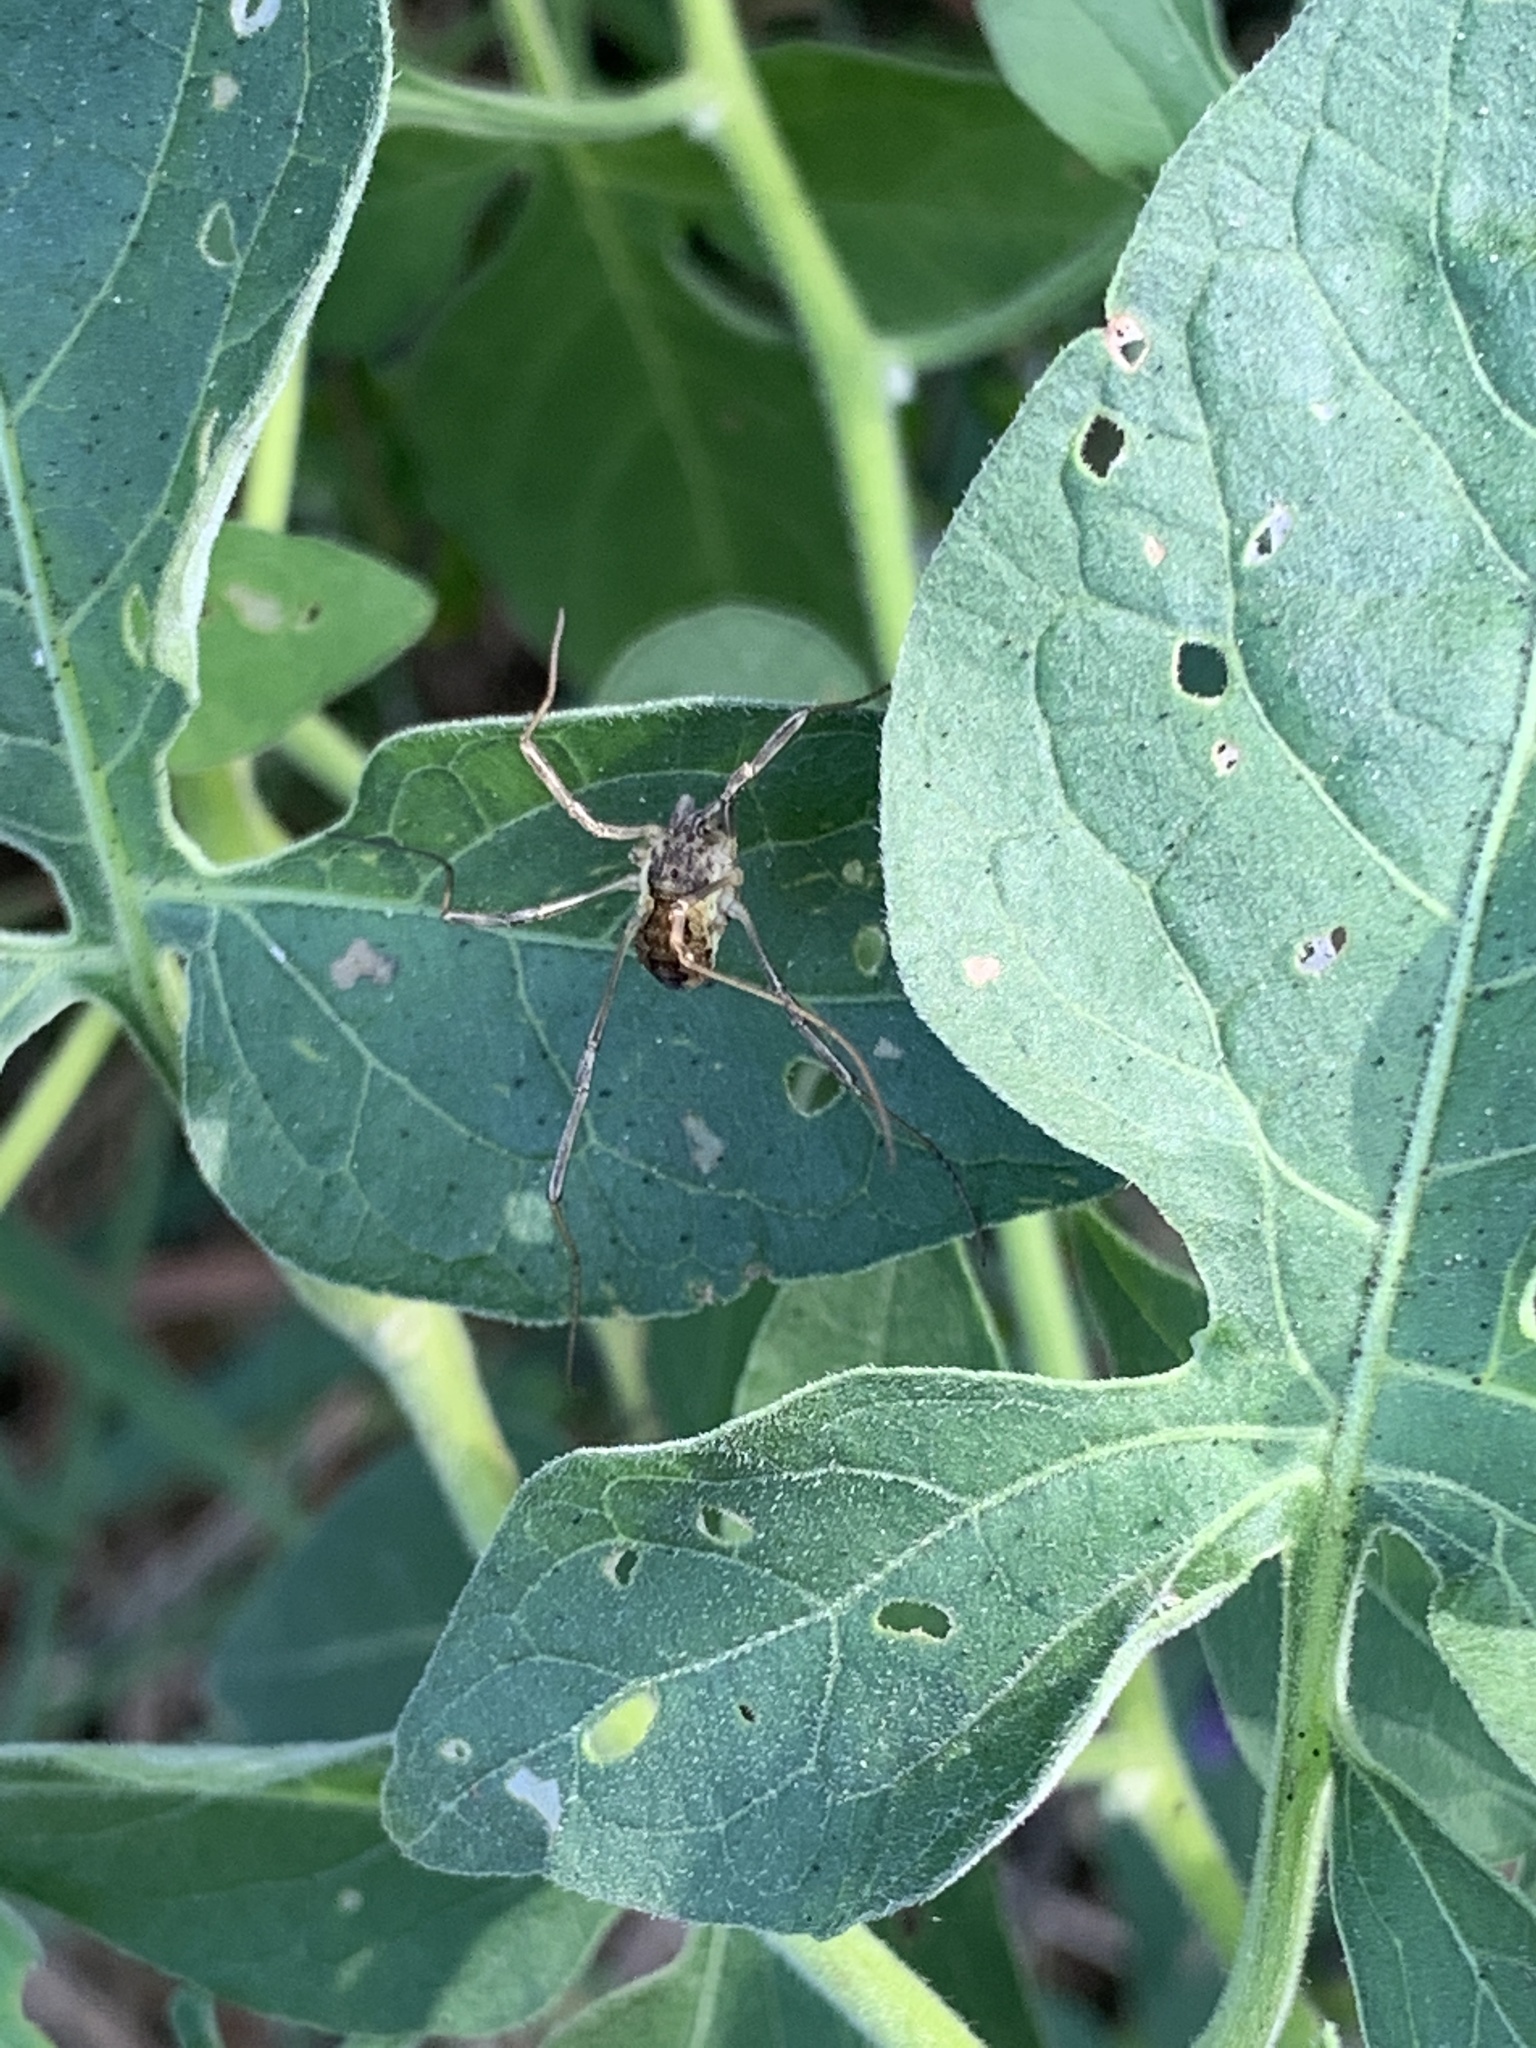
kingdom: Animalia
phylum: Arthropoda
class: Arachnida
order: Opiliones
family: Phalangiidae
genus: Mitopus
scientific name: Mitopus morio
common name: Saddleback harvestman
